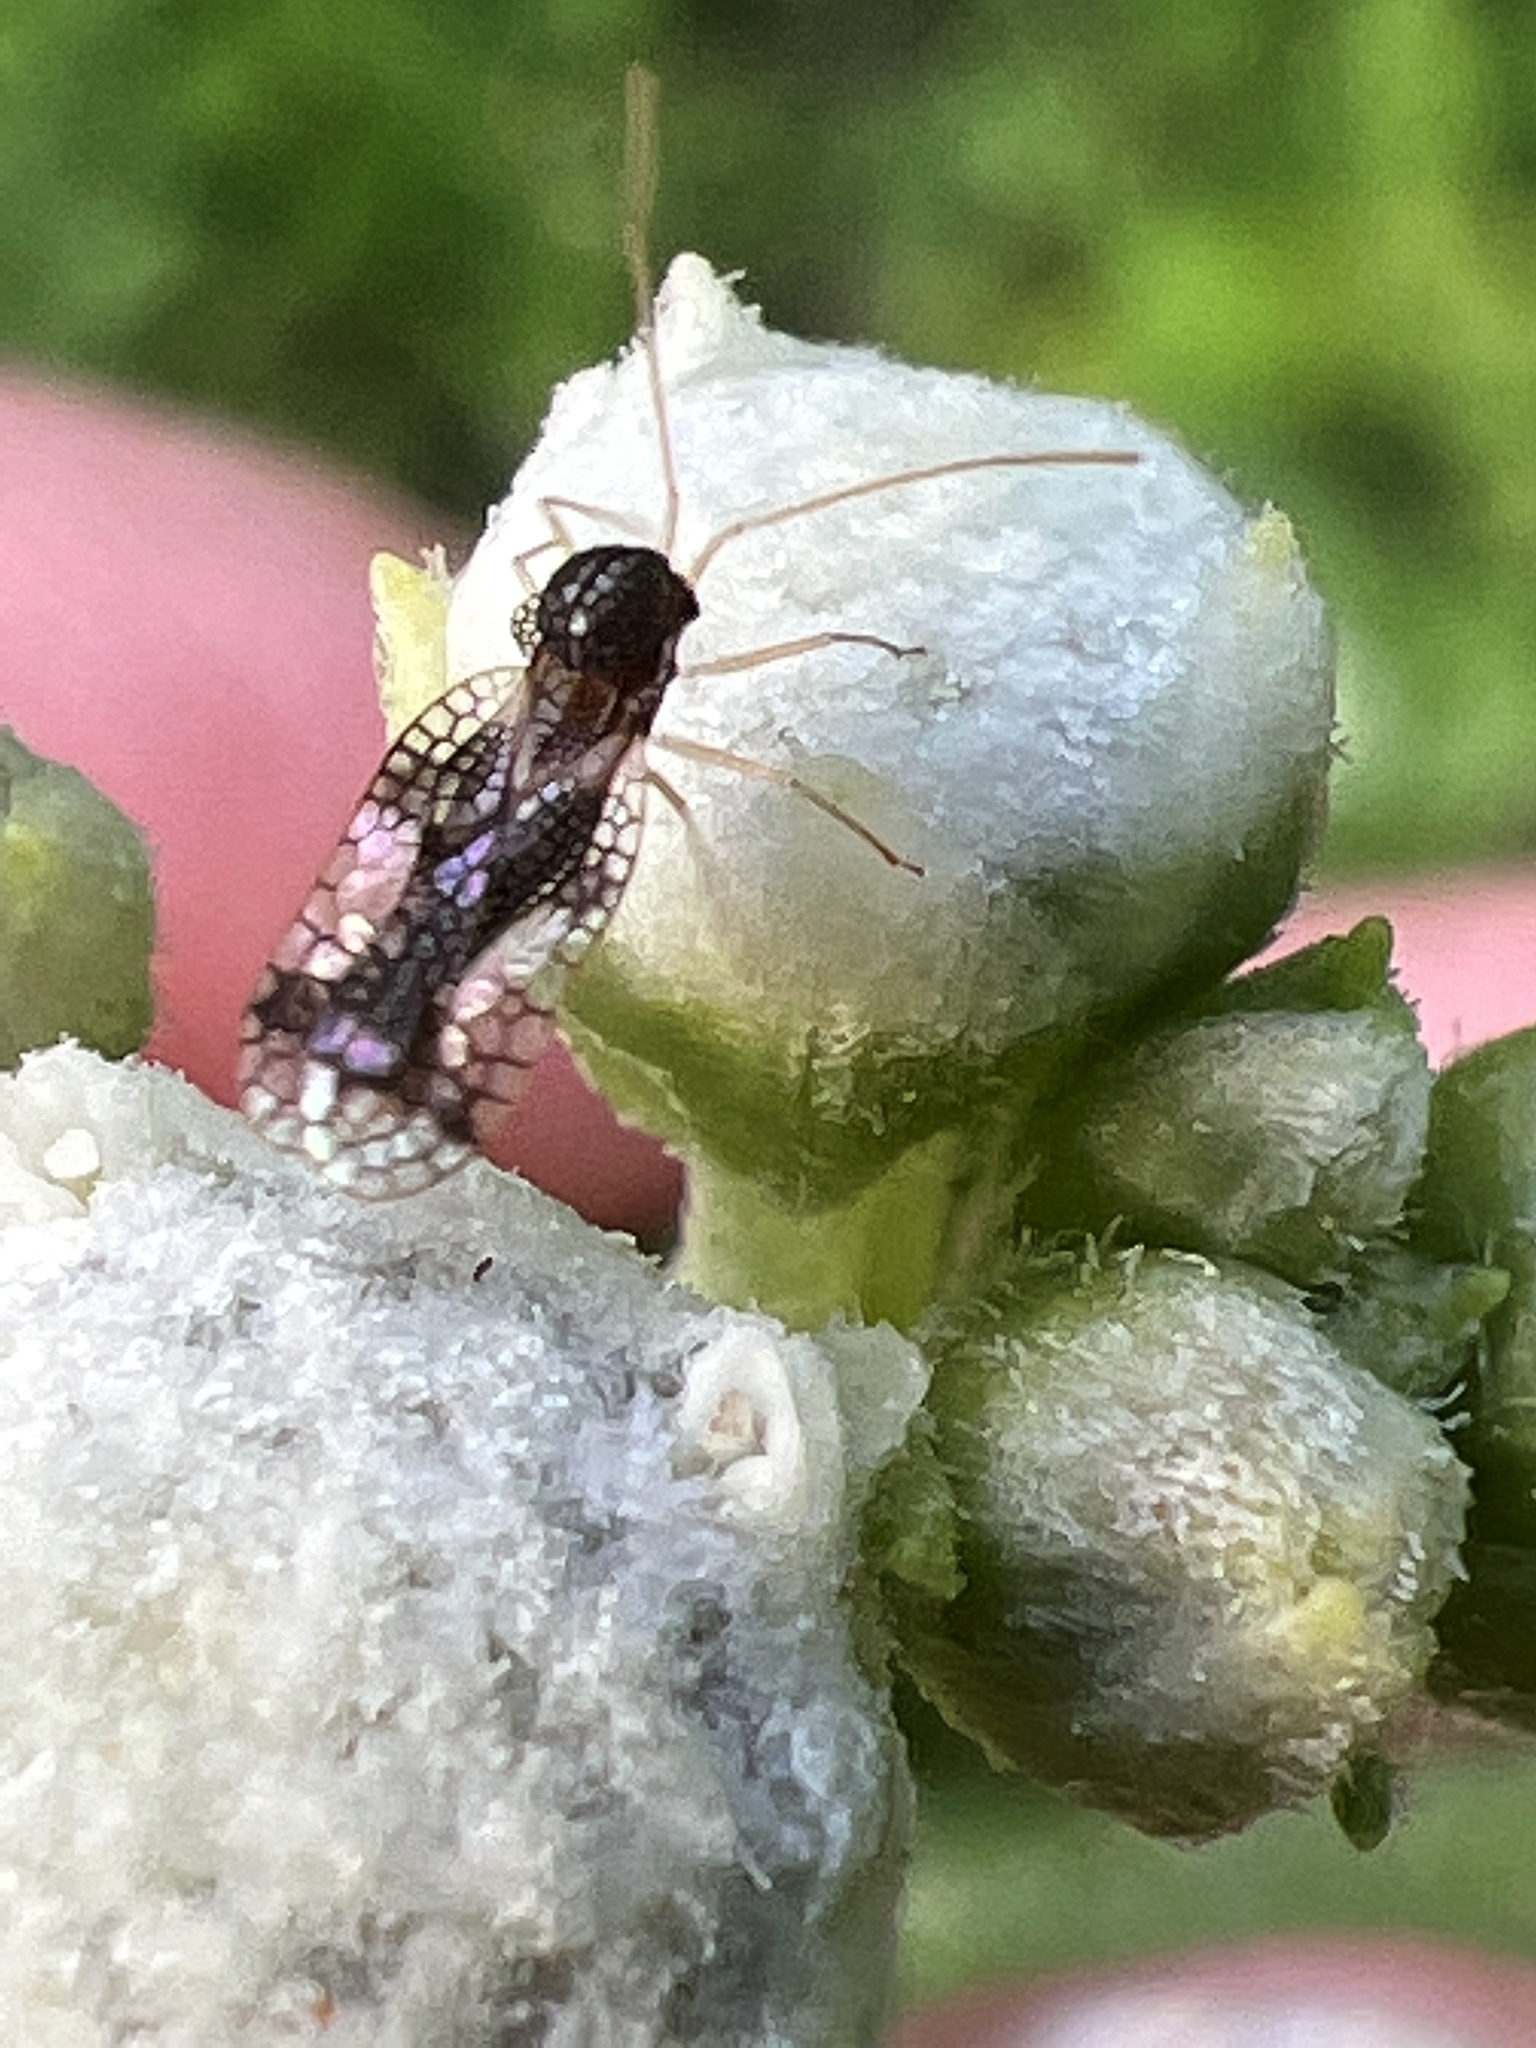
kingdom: Animalia
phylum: Arthropoda
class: Insecta
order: Hemiptera
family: Tingidae
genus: Stephanitis
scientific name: Stephanitis takeyai
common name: Andromeda lacebug
